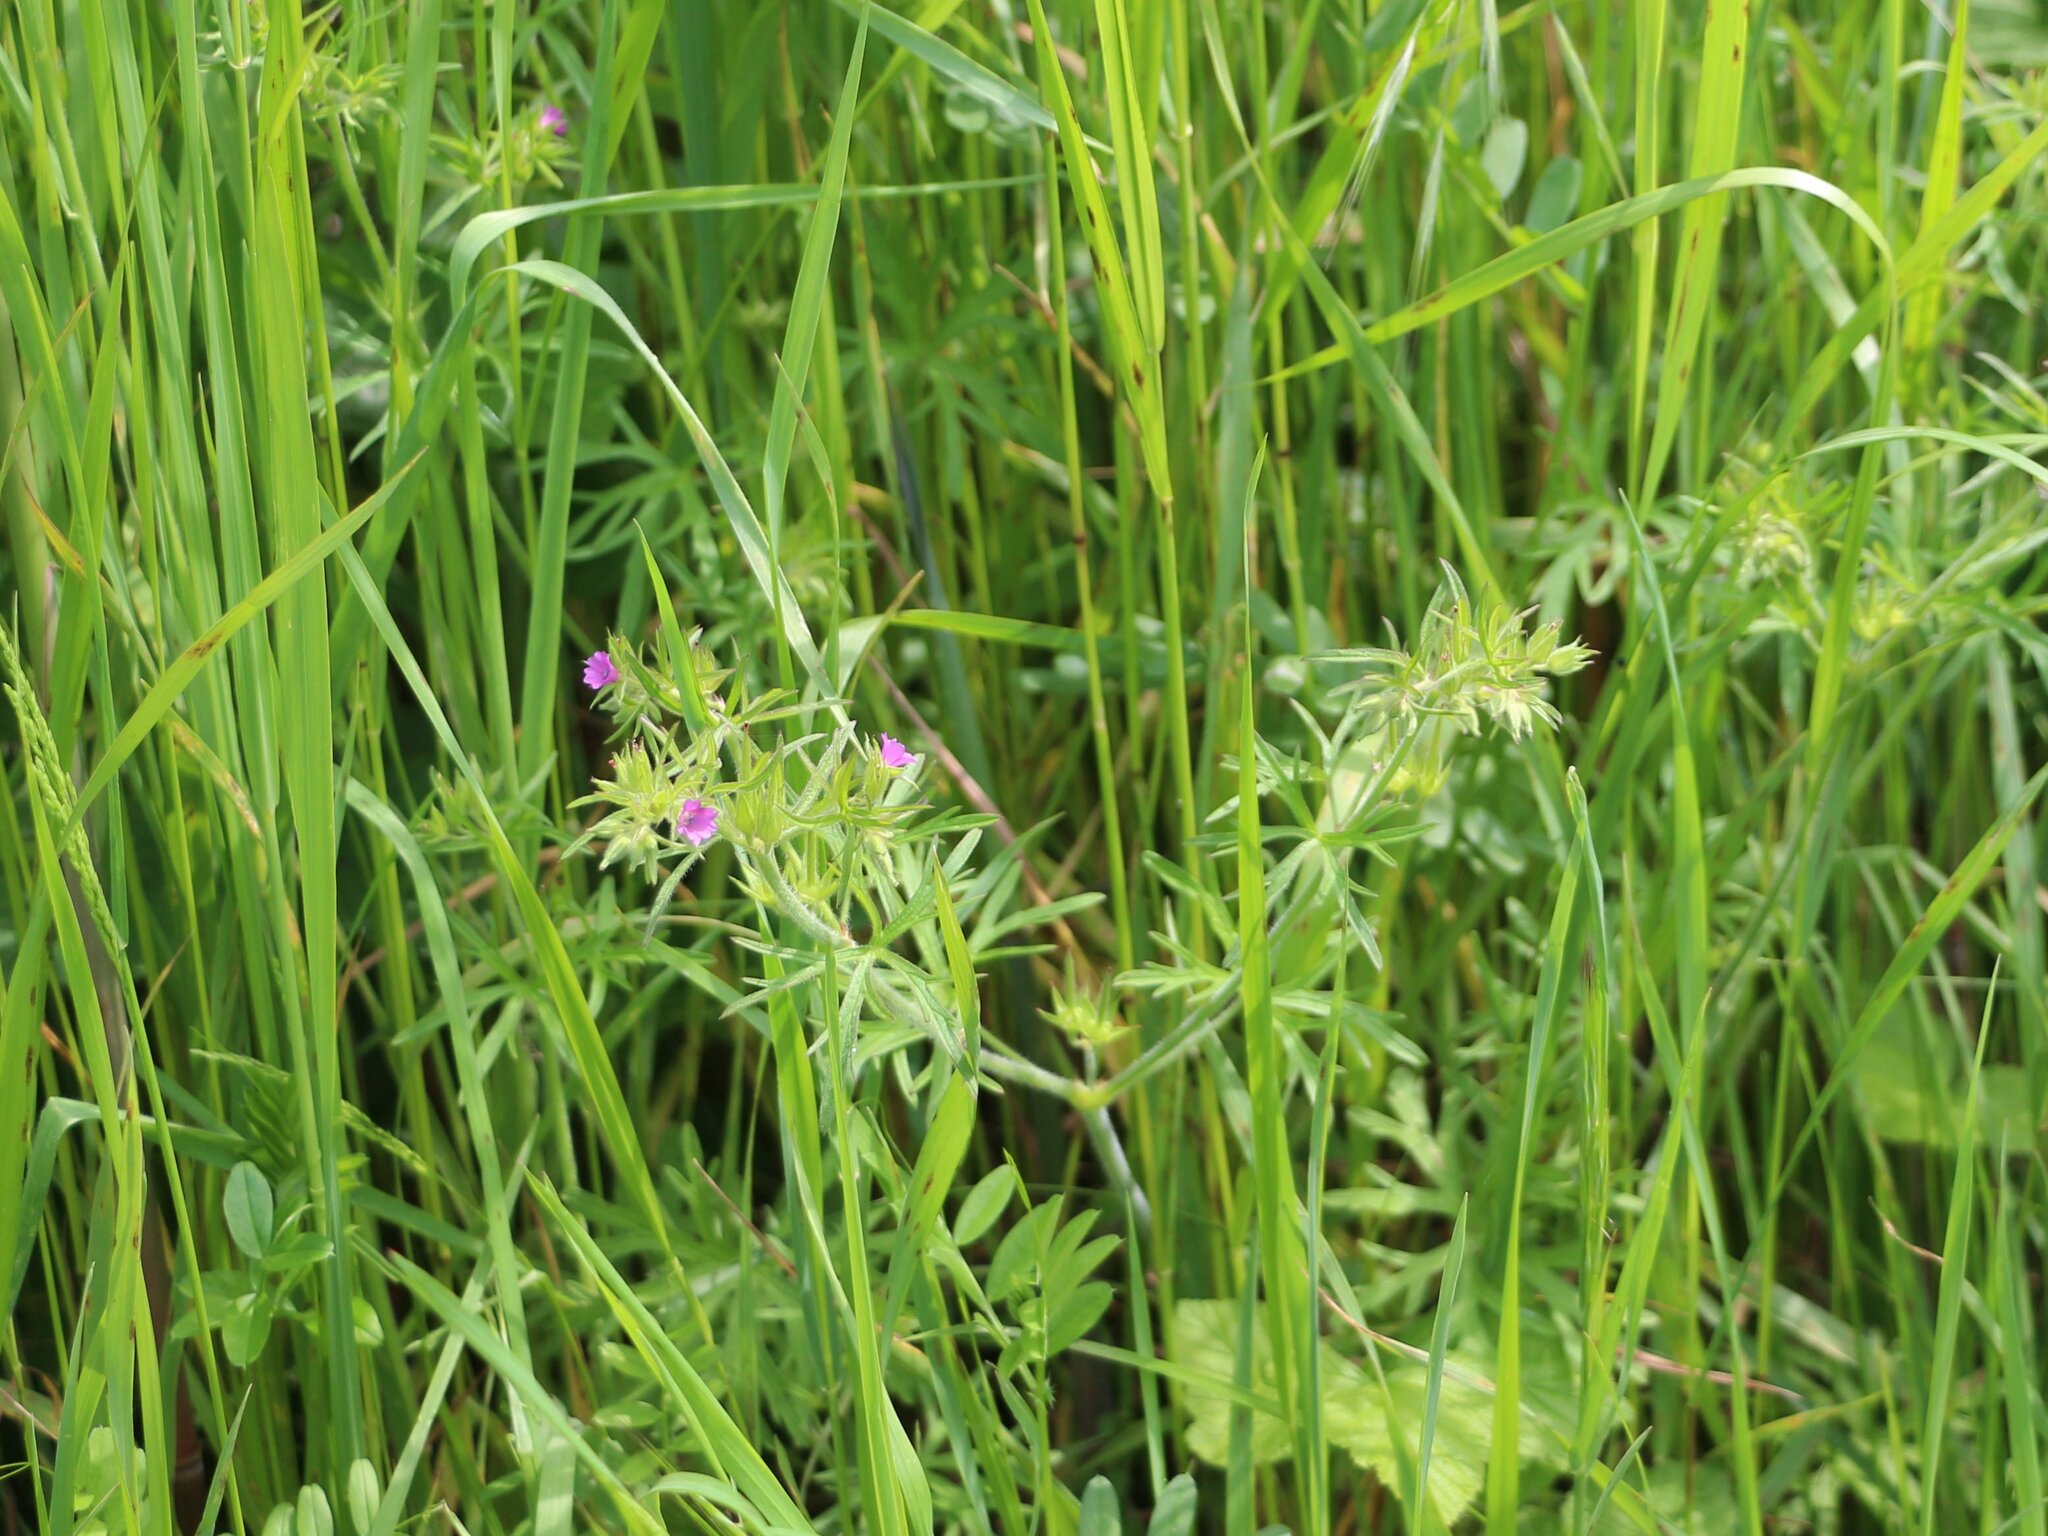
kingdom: Plantae
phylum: Tracheophyta
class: Magnoliopsida
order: Geraniales
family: Geraniaceae
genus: Geranium
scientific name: Geranium dissectum
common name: Cut-leaved crane's-bill
